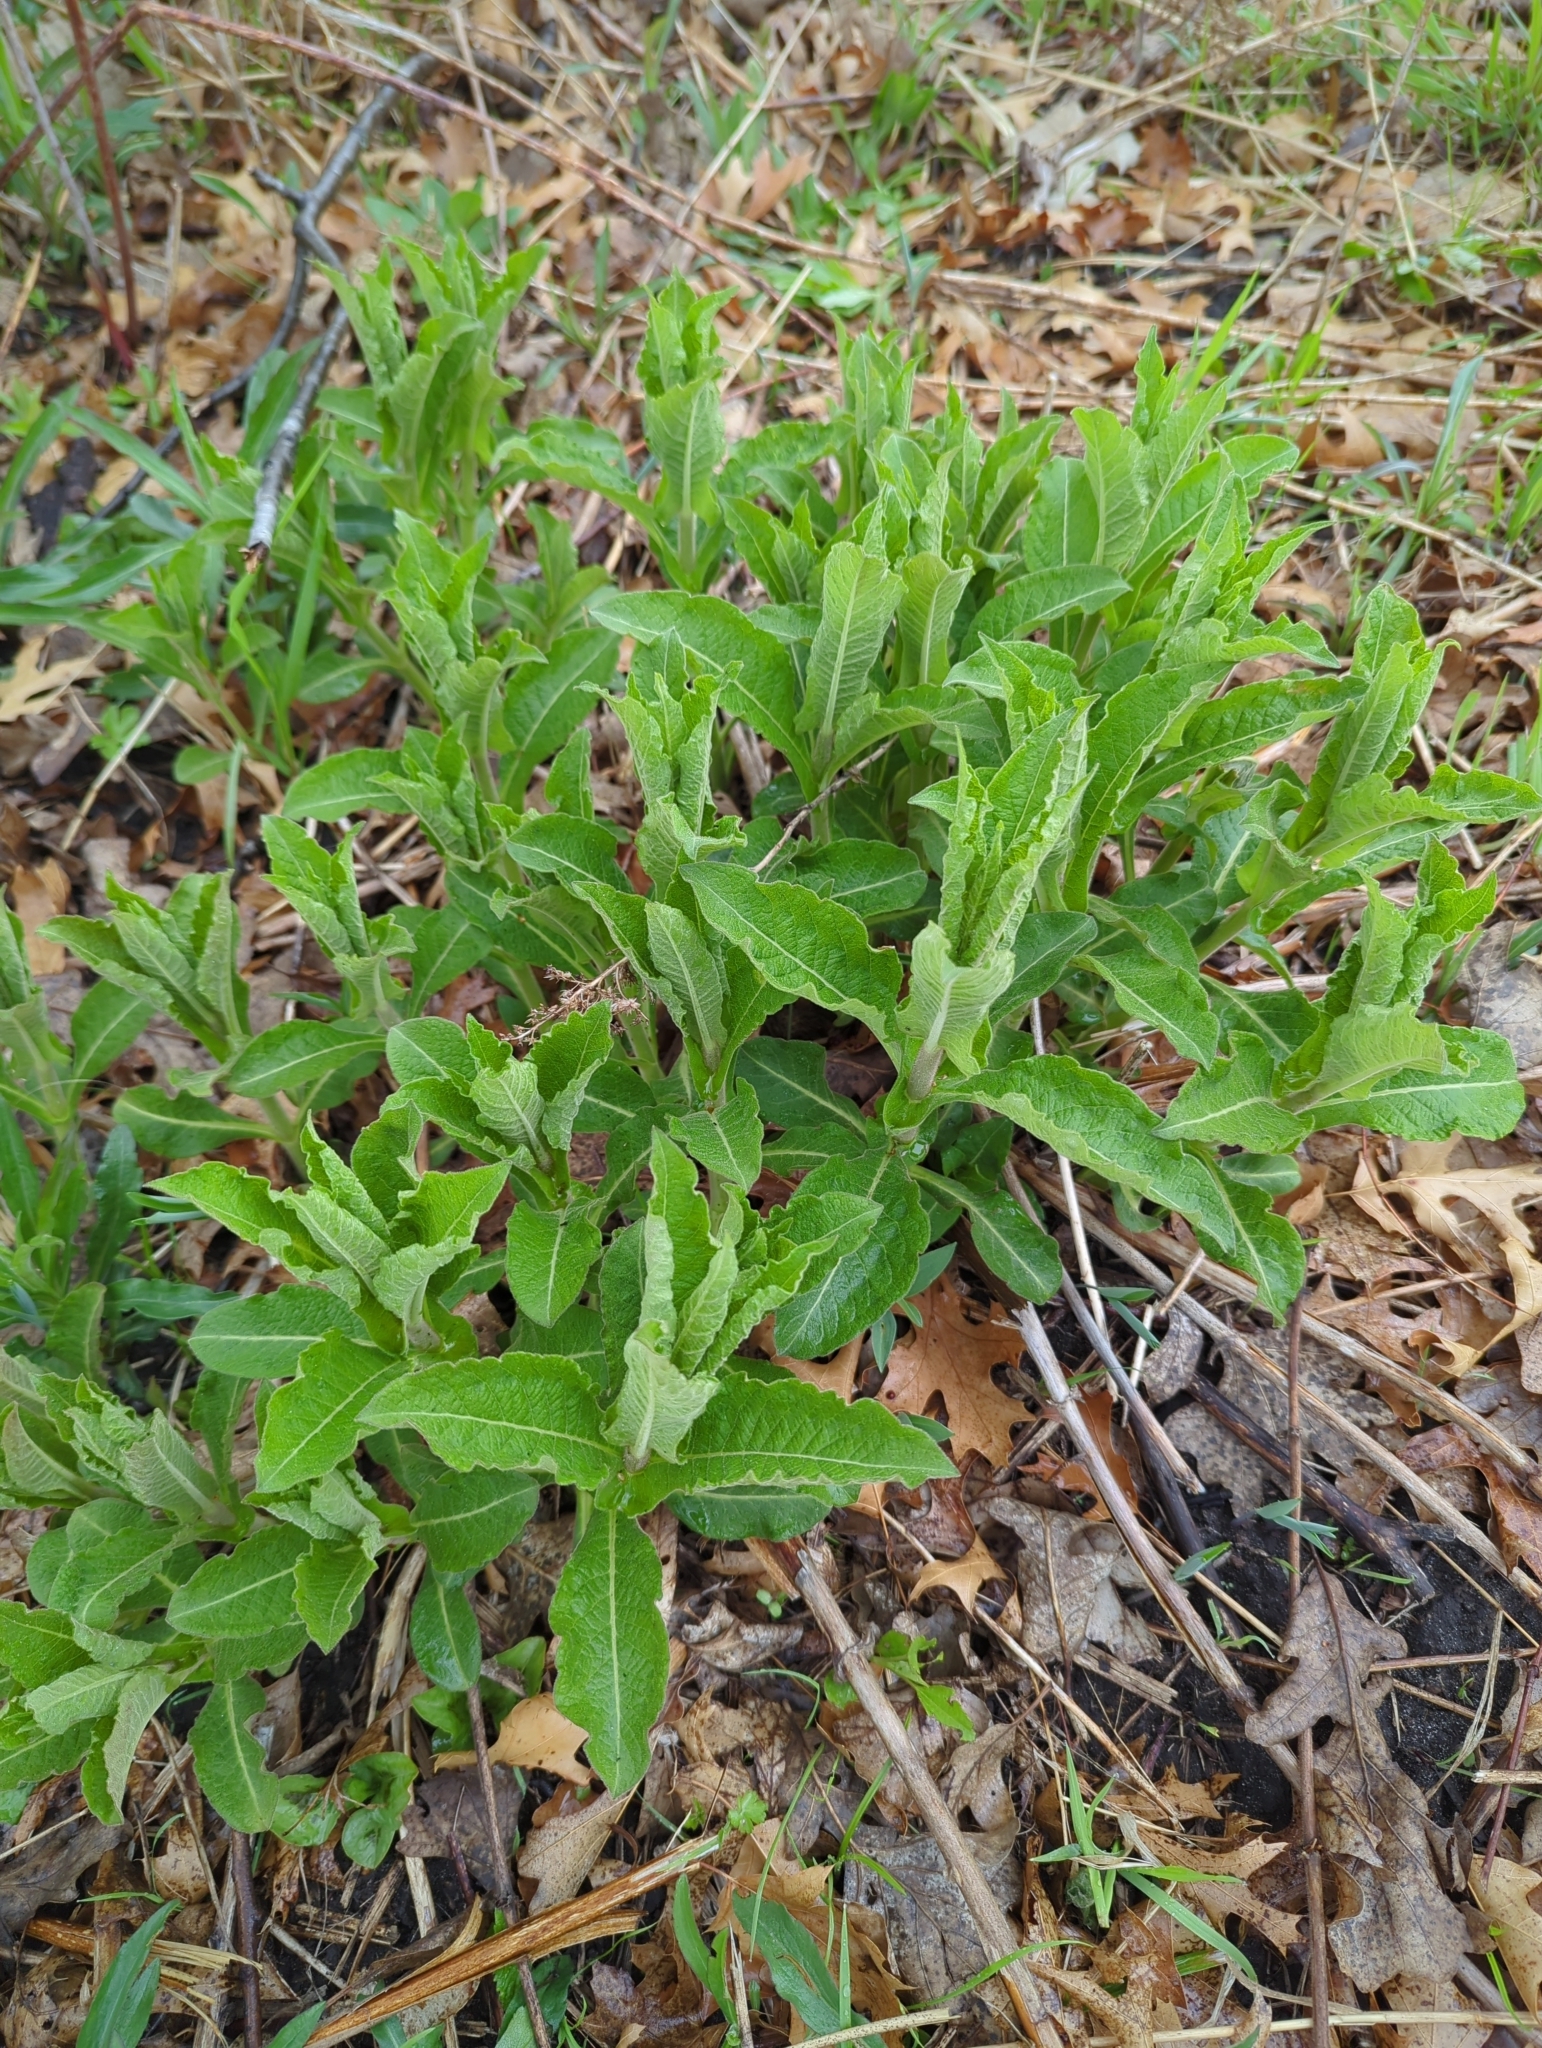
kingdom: Plantae
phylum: Tracheophyta
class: Magnoliopsida
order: Dipsacales
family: Caprifoliaceae
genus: Triosteum
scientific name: Triosteum perfoliatum
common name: Common horse-gentian
